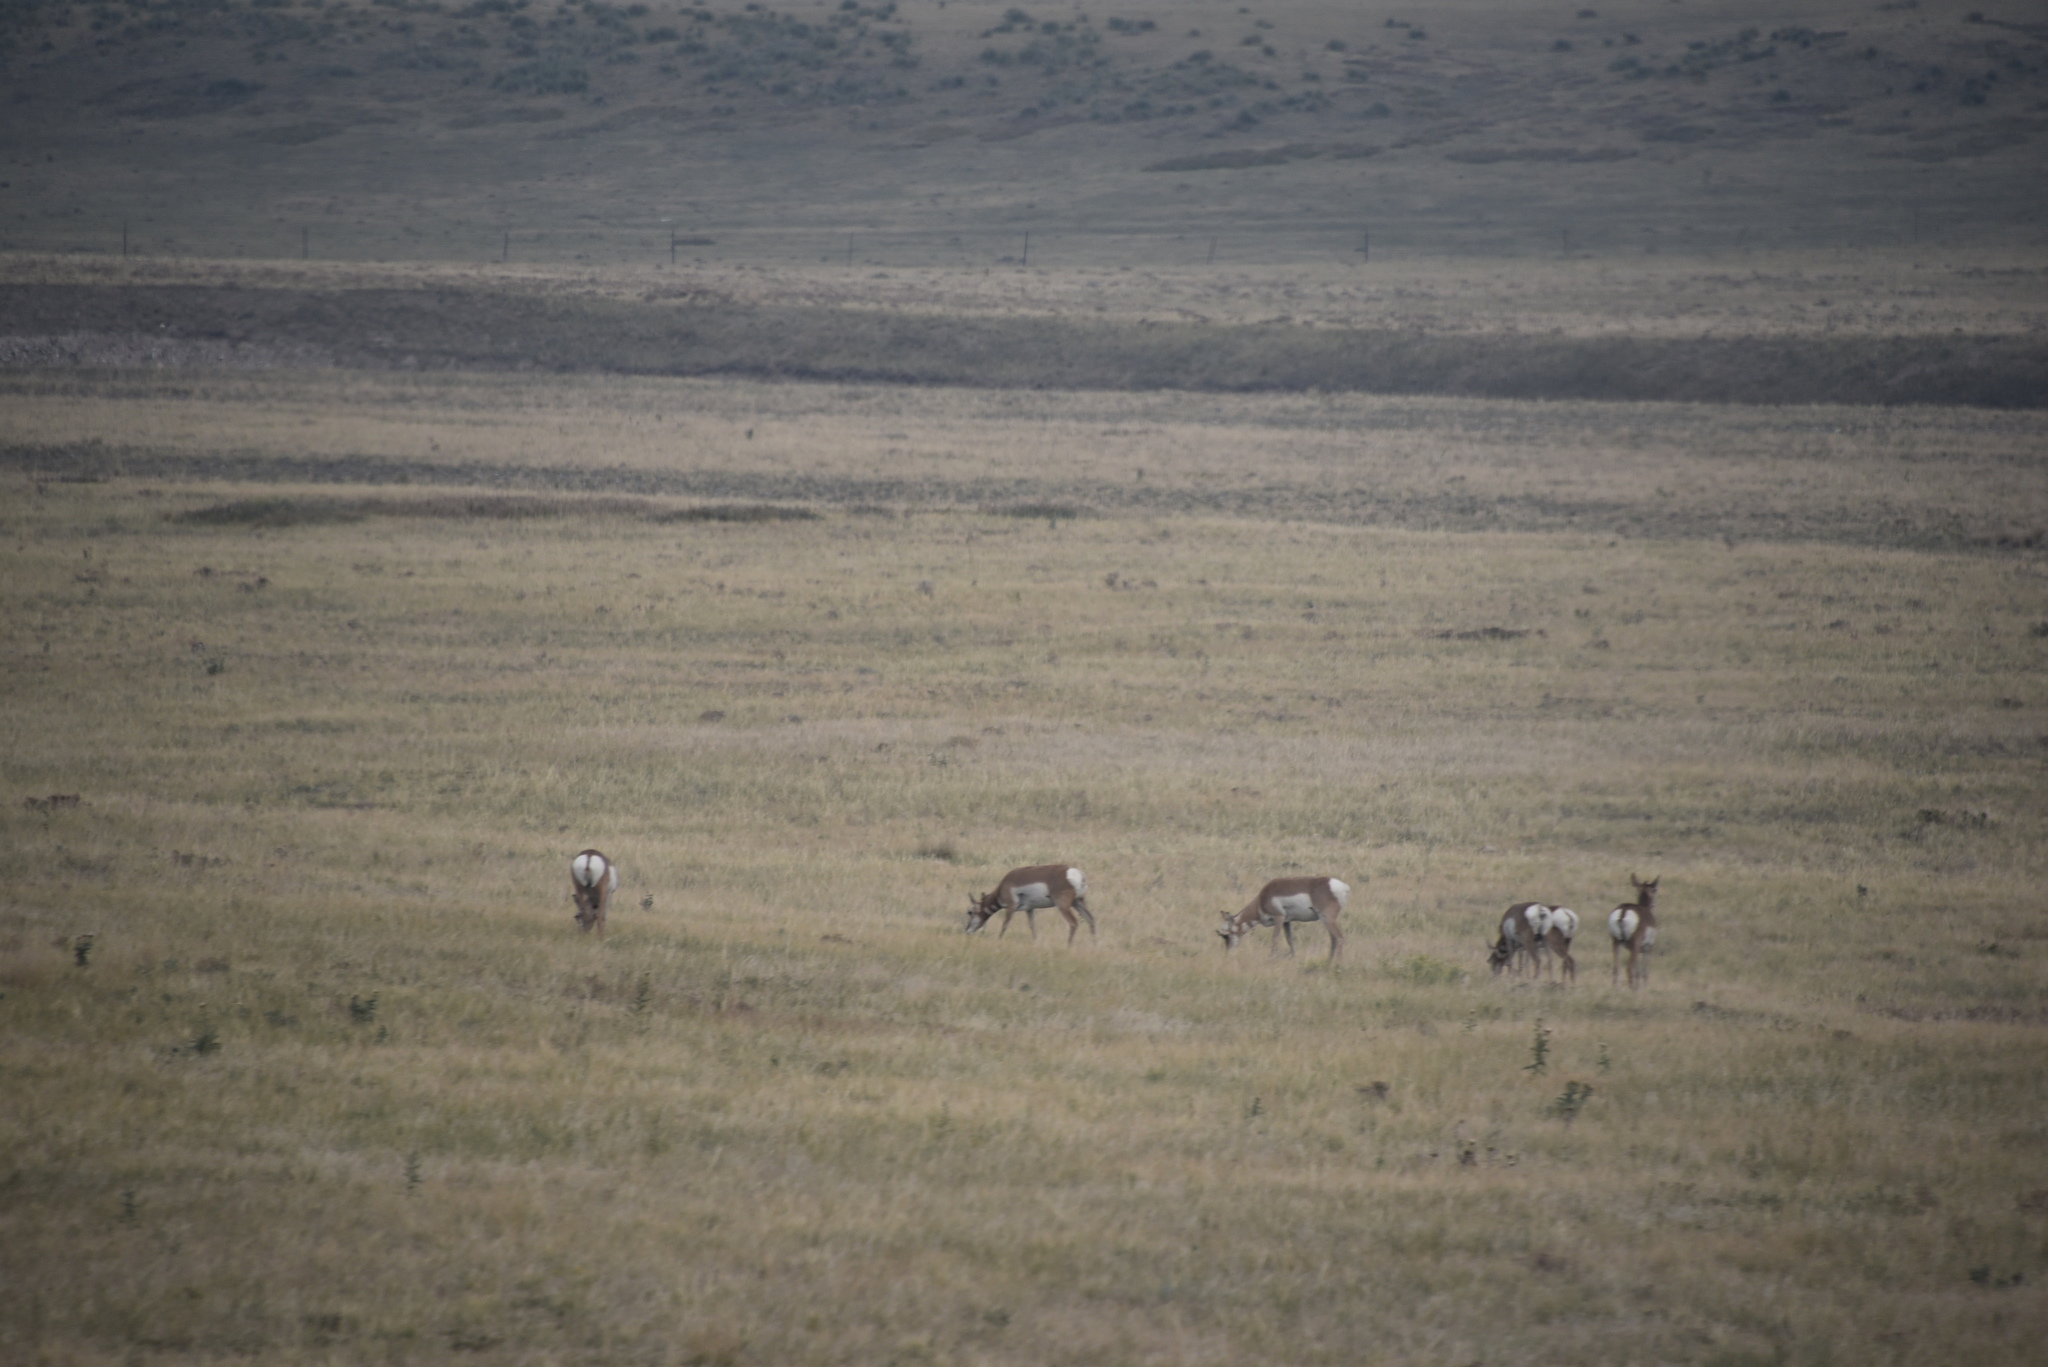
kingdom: Animalia
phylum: Chordata
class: Mammalia
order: Artiodactyla
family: Antilocapridae
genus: Antilocapra
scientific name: Antilocapra americana
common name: Pronghorn
